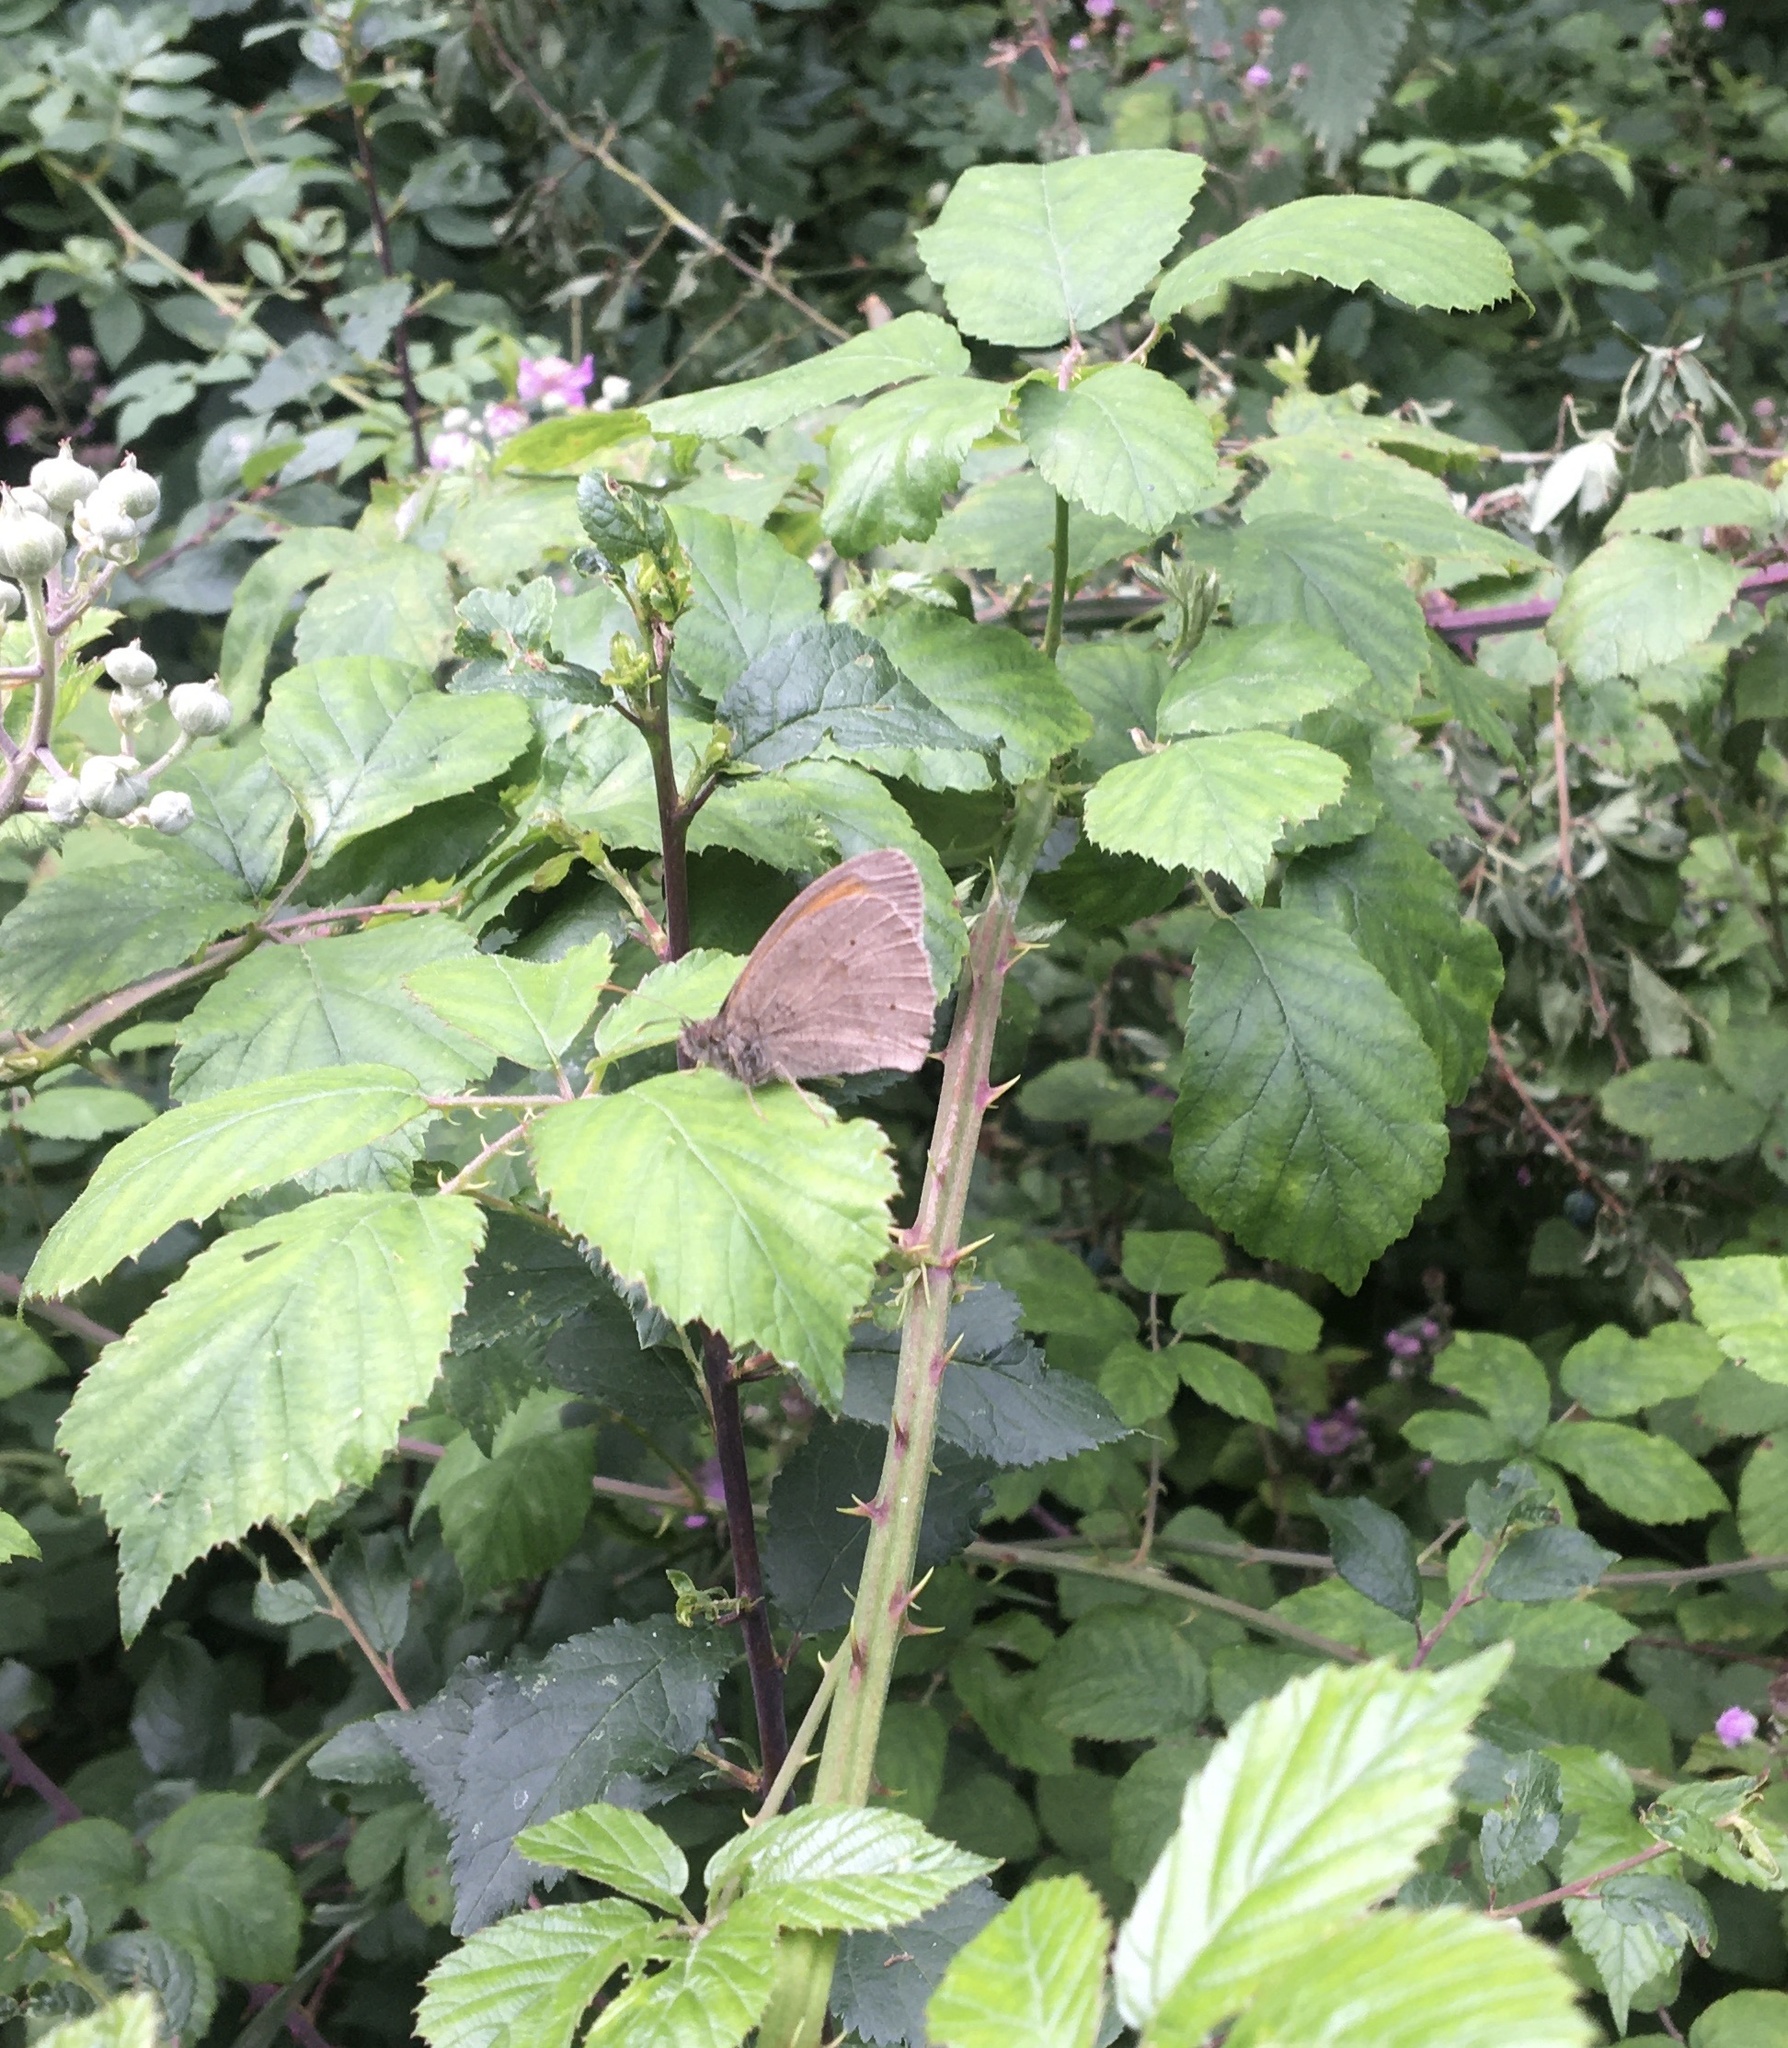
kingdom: Animalia
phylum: Arthropoda
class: Insecta
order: Lepidoptera
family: Nymphalidae
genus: Maniola
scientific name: Maniola jurtina
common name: Meadow brown
